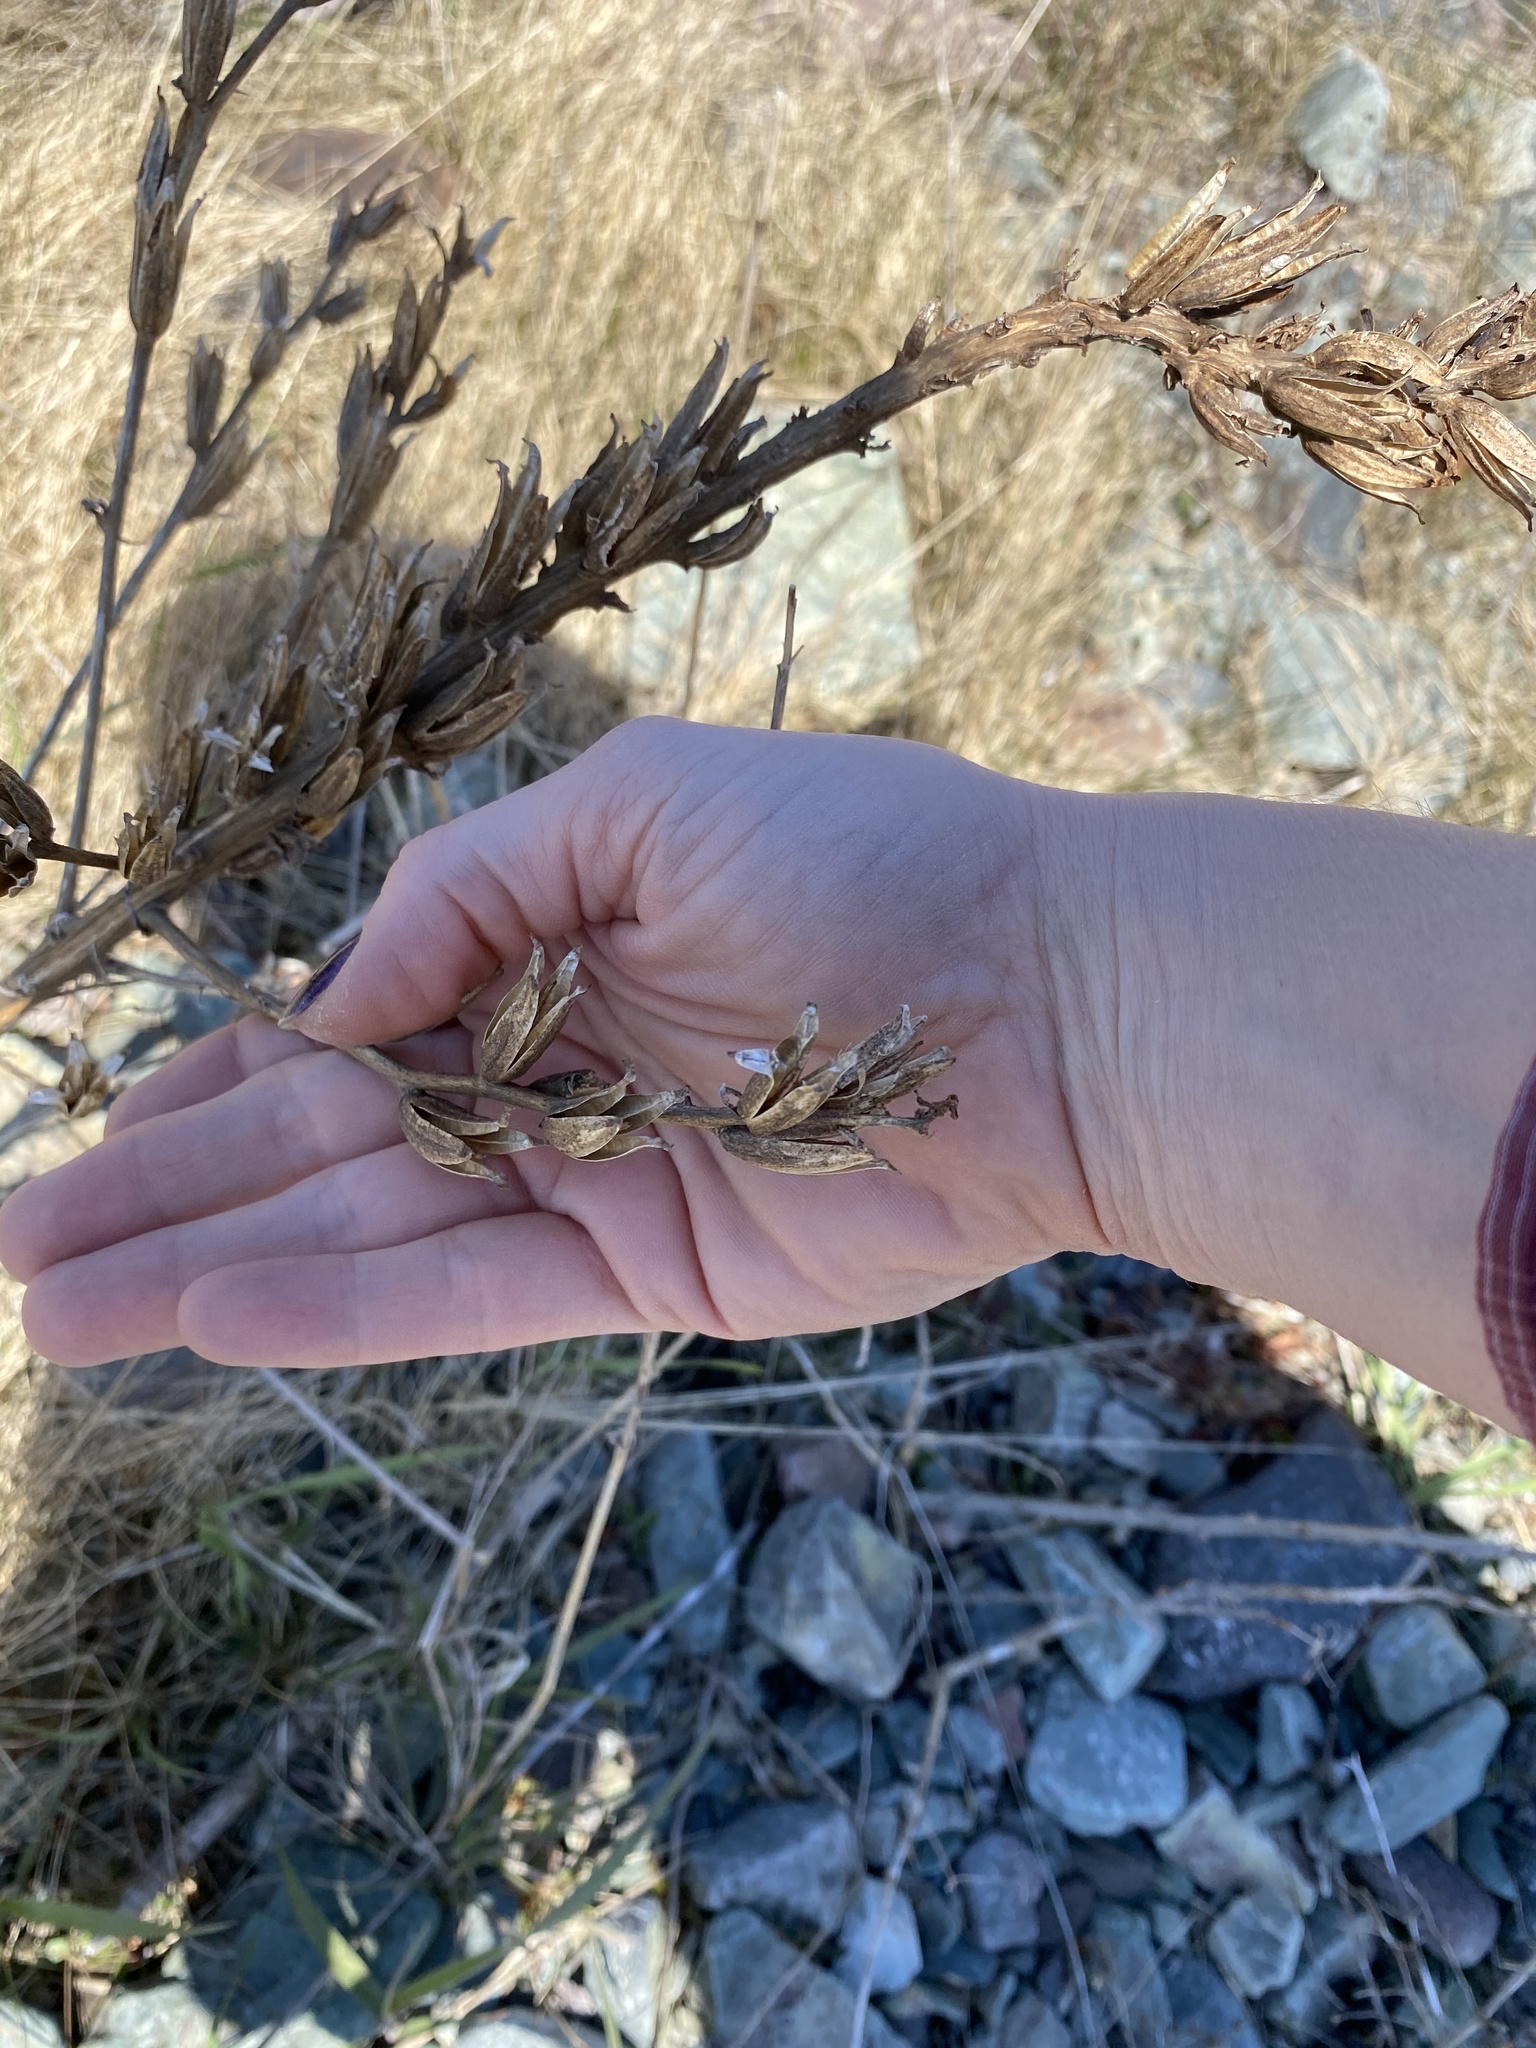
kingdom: Plantae
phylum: Tracheophyta
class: Magnoliopsida
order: Myrtales
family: Onagraceae
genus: Oenothera
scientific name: Oenothera biennis
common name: Common evening-primrose
